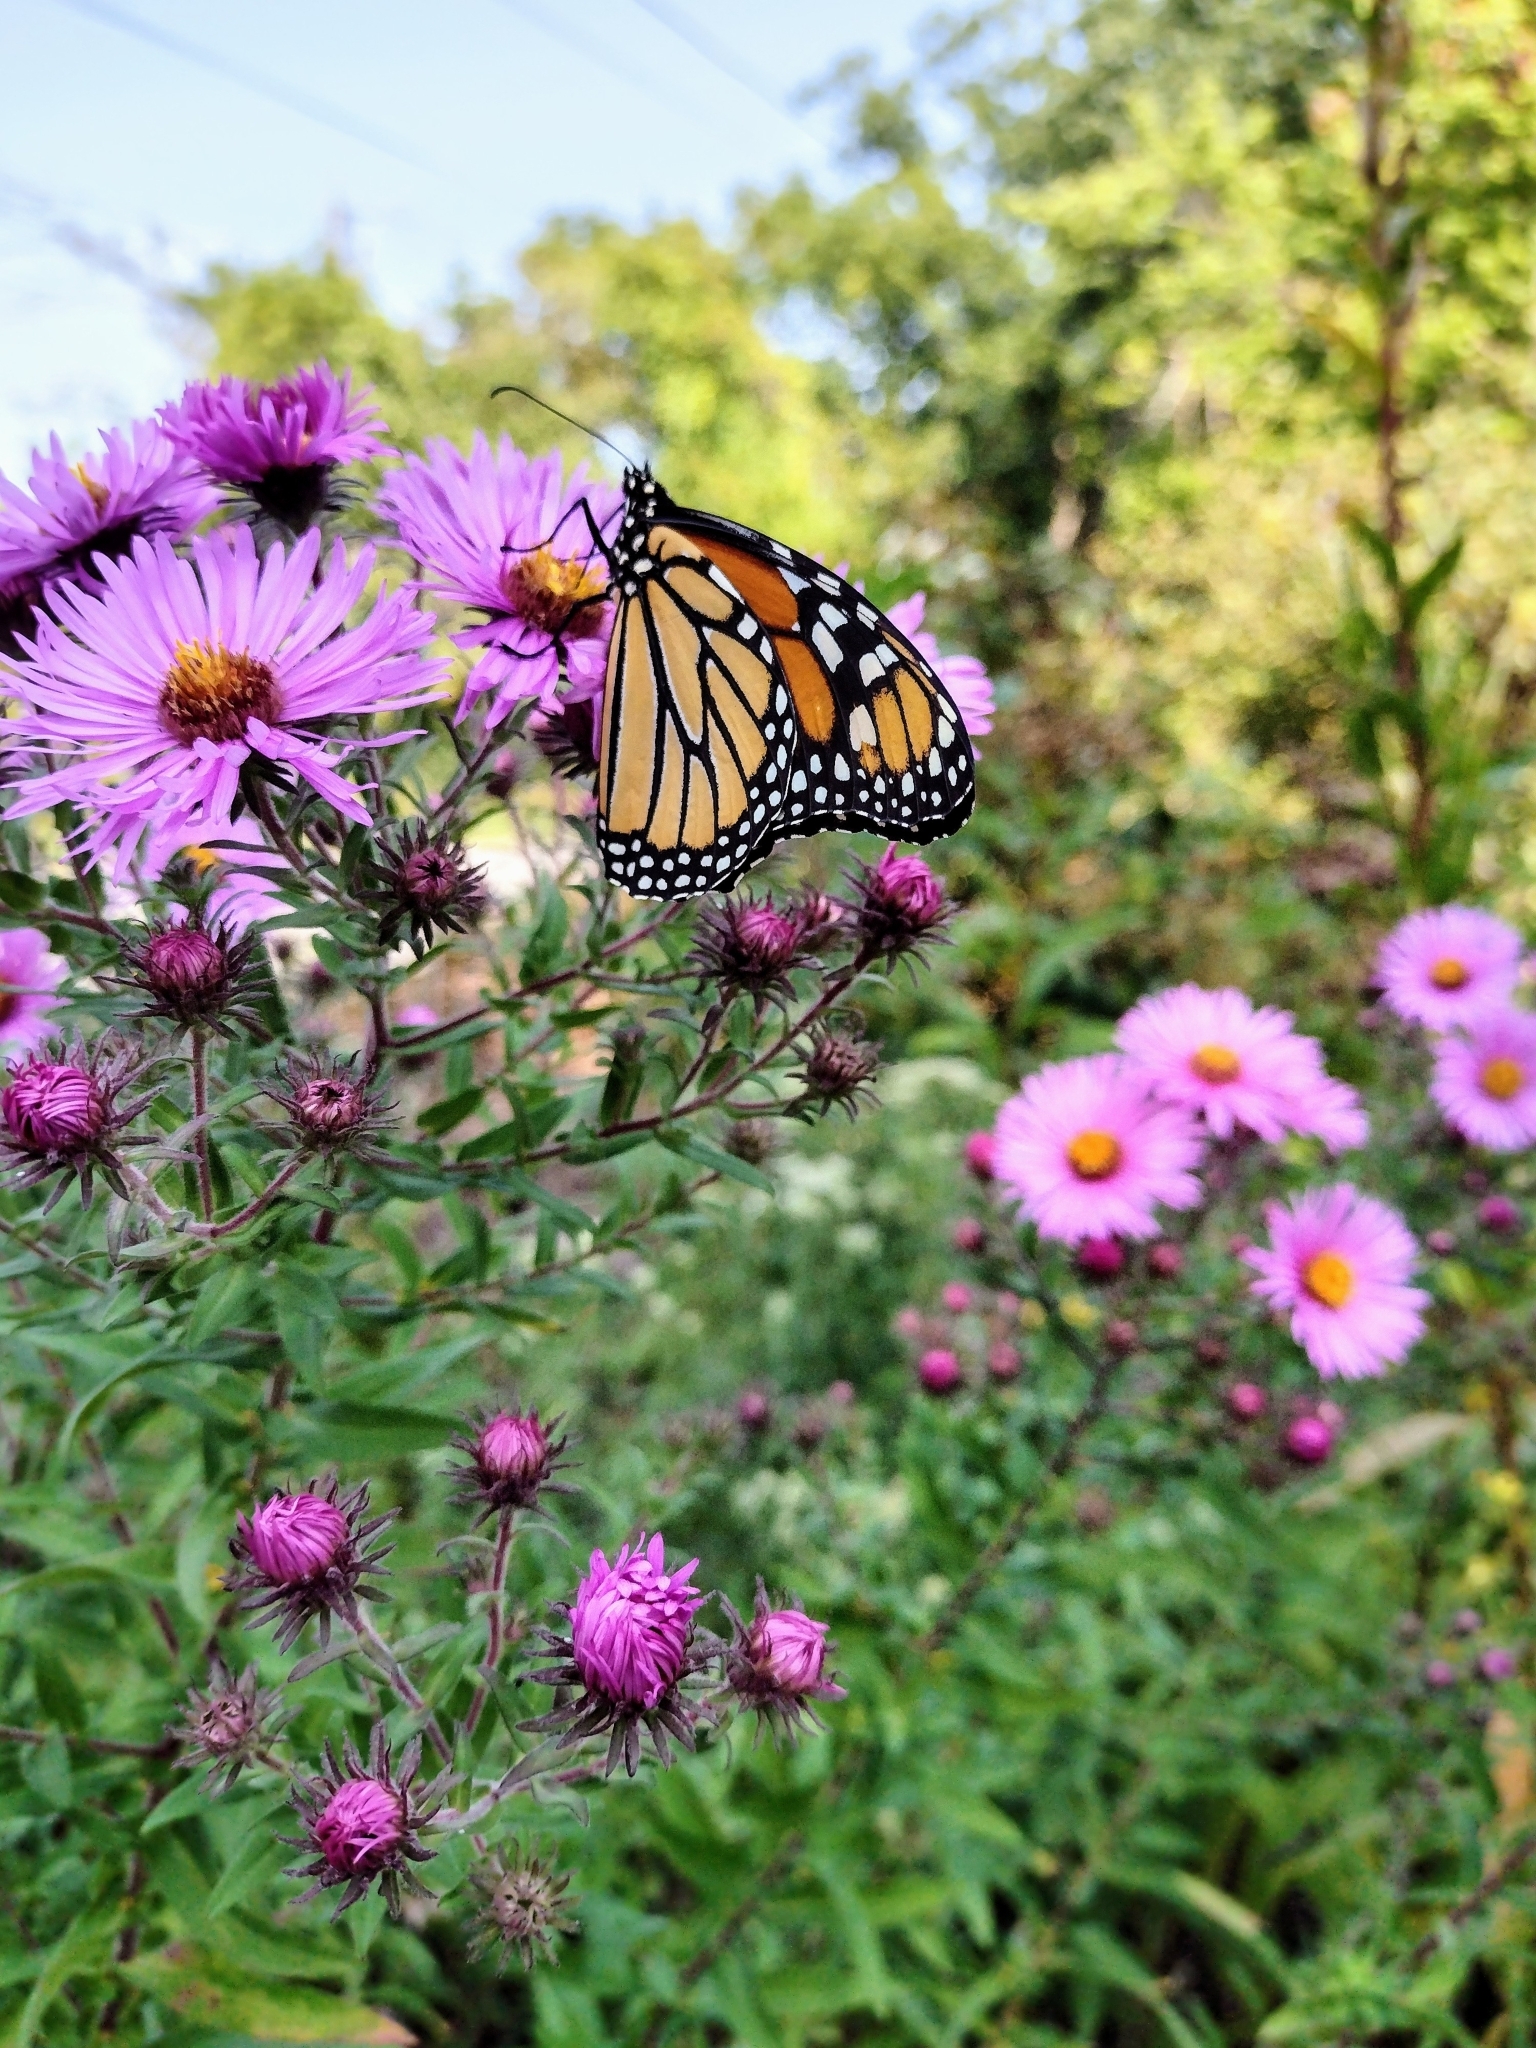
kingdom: Animalia
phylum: Arthropoda
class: Insecta
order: Lepidoptera
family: Nymphalidae
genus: Danaus
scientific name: Danaus plexippus
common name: Monarch
